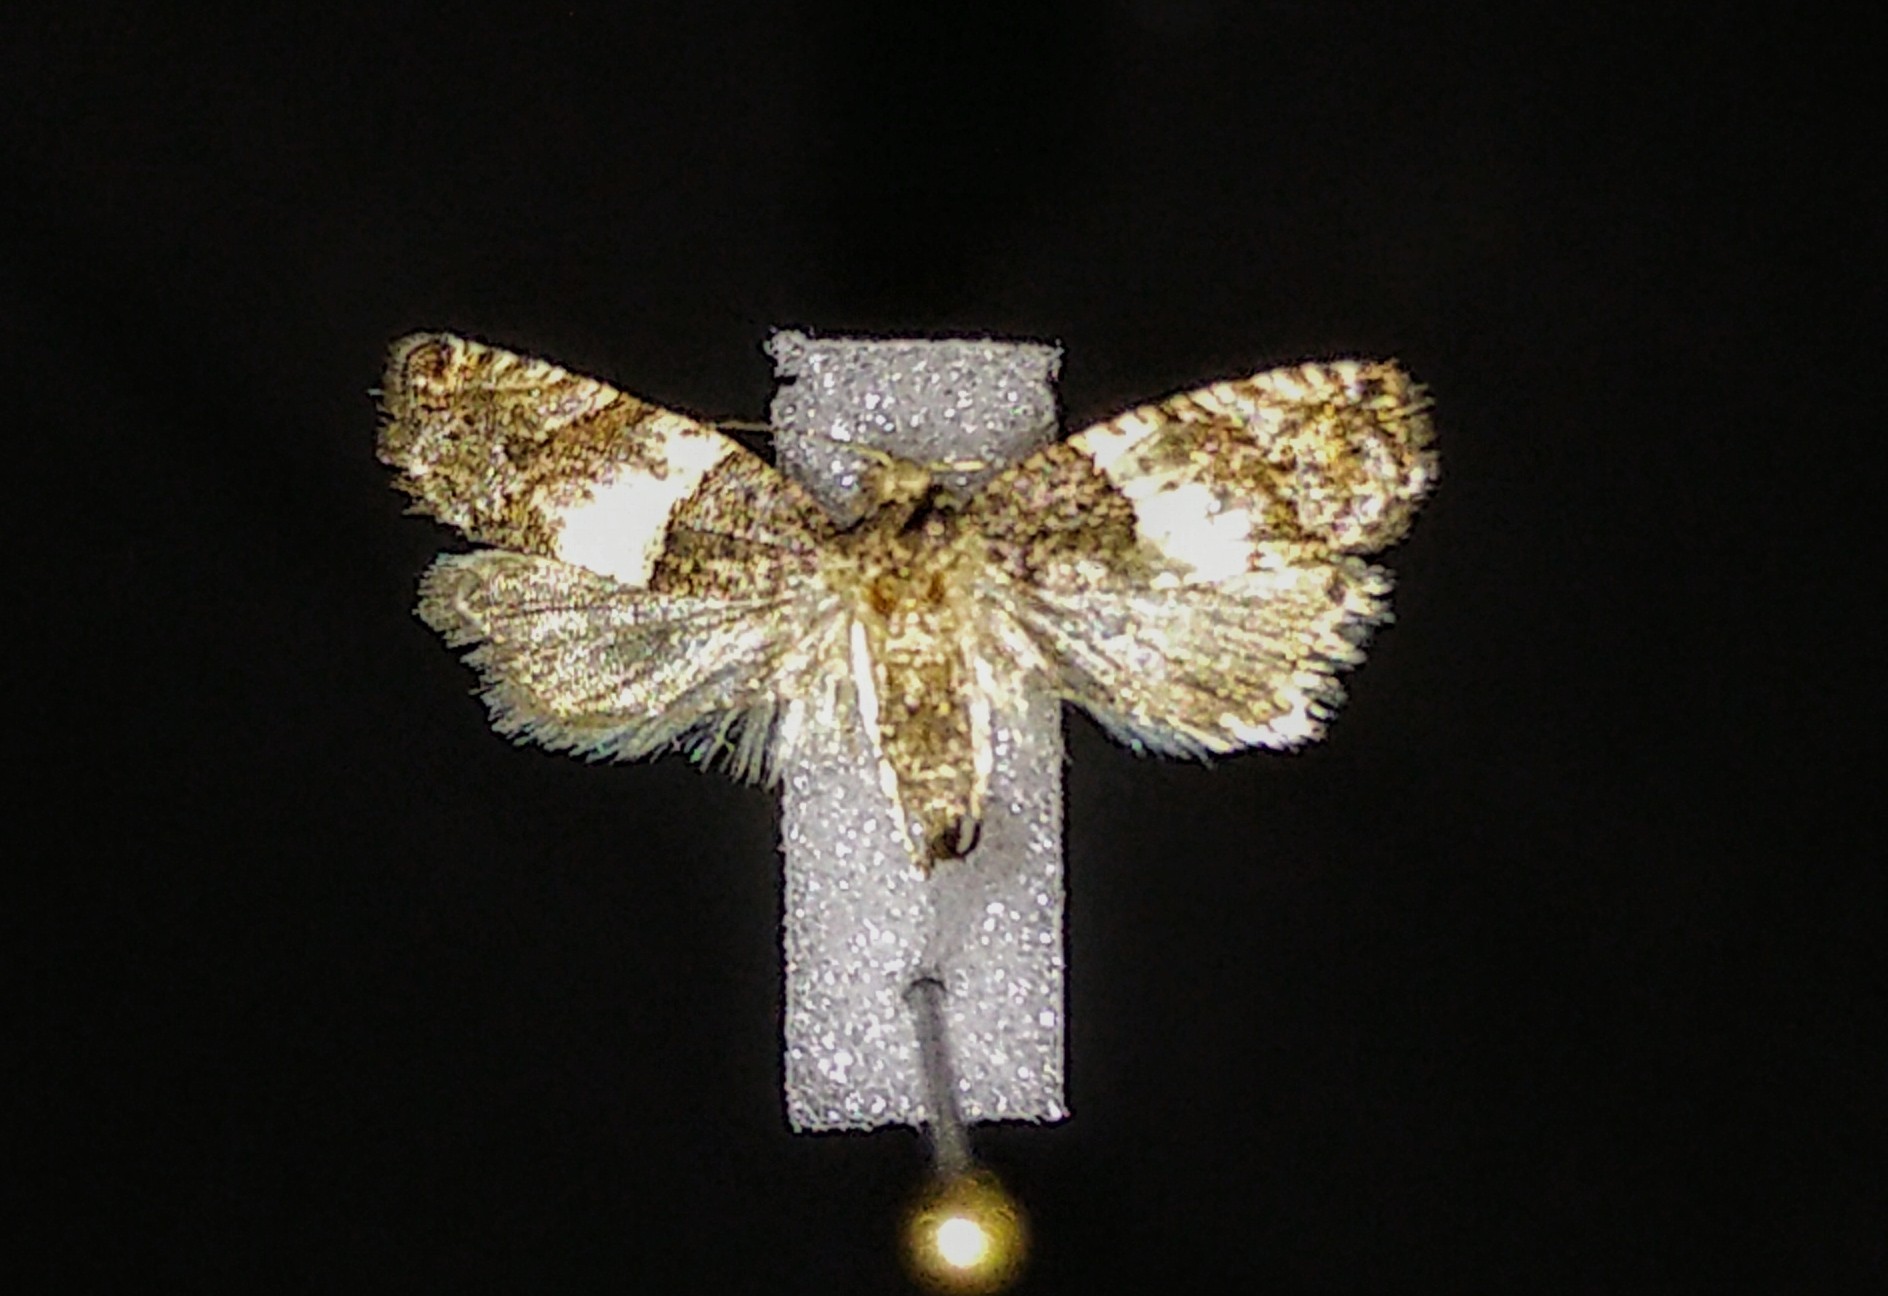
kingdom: Animalia
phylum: Arthropoda
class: Insecta
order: Lepidoptera
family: Tortricidae
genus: Gypsonoma
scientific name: Gypsonoma substitutionis
